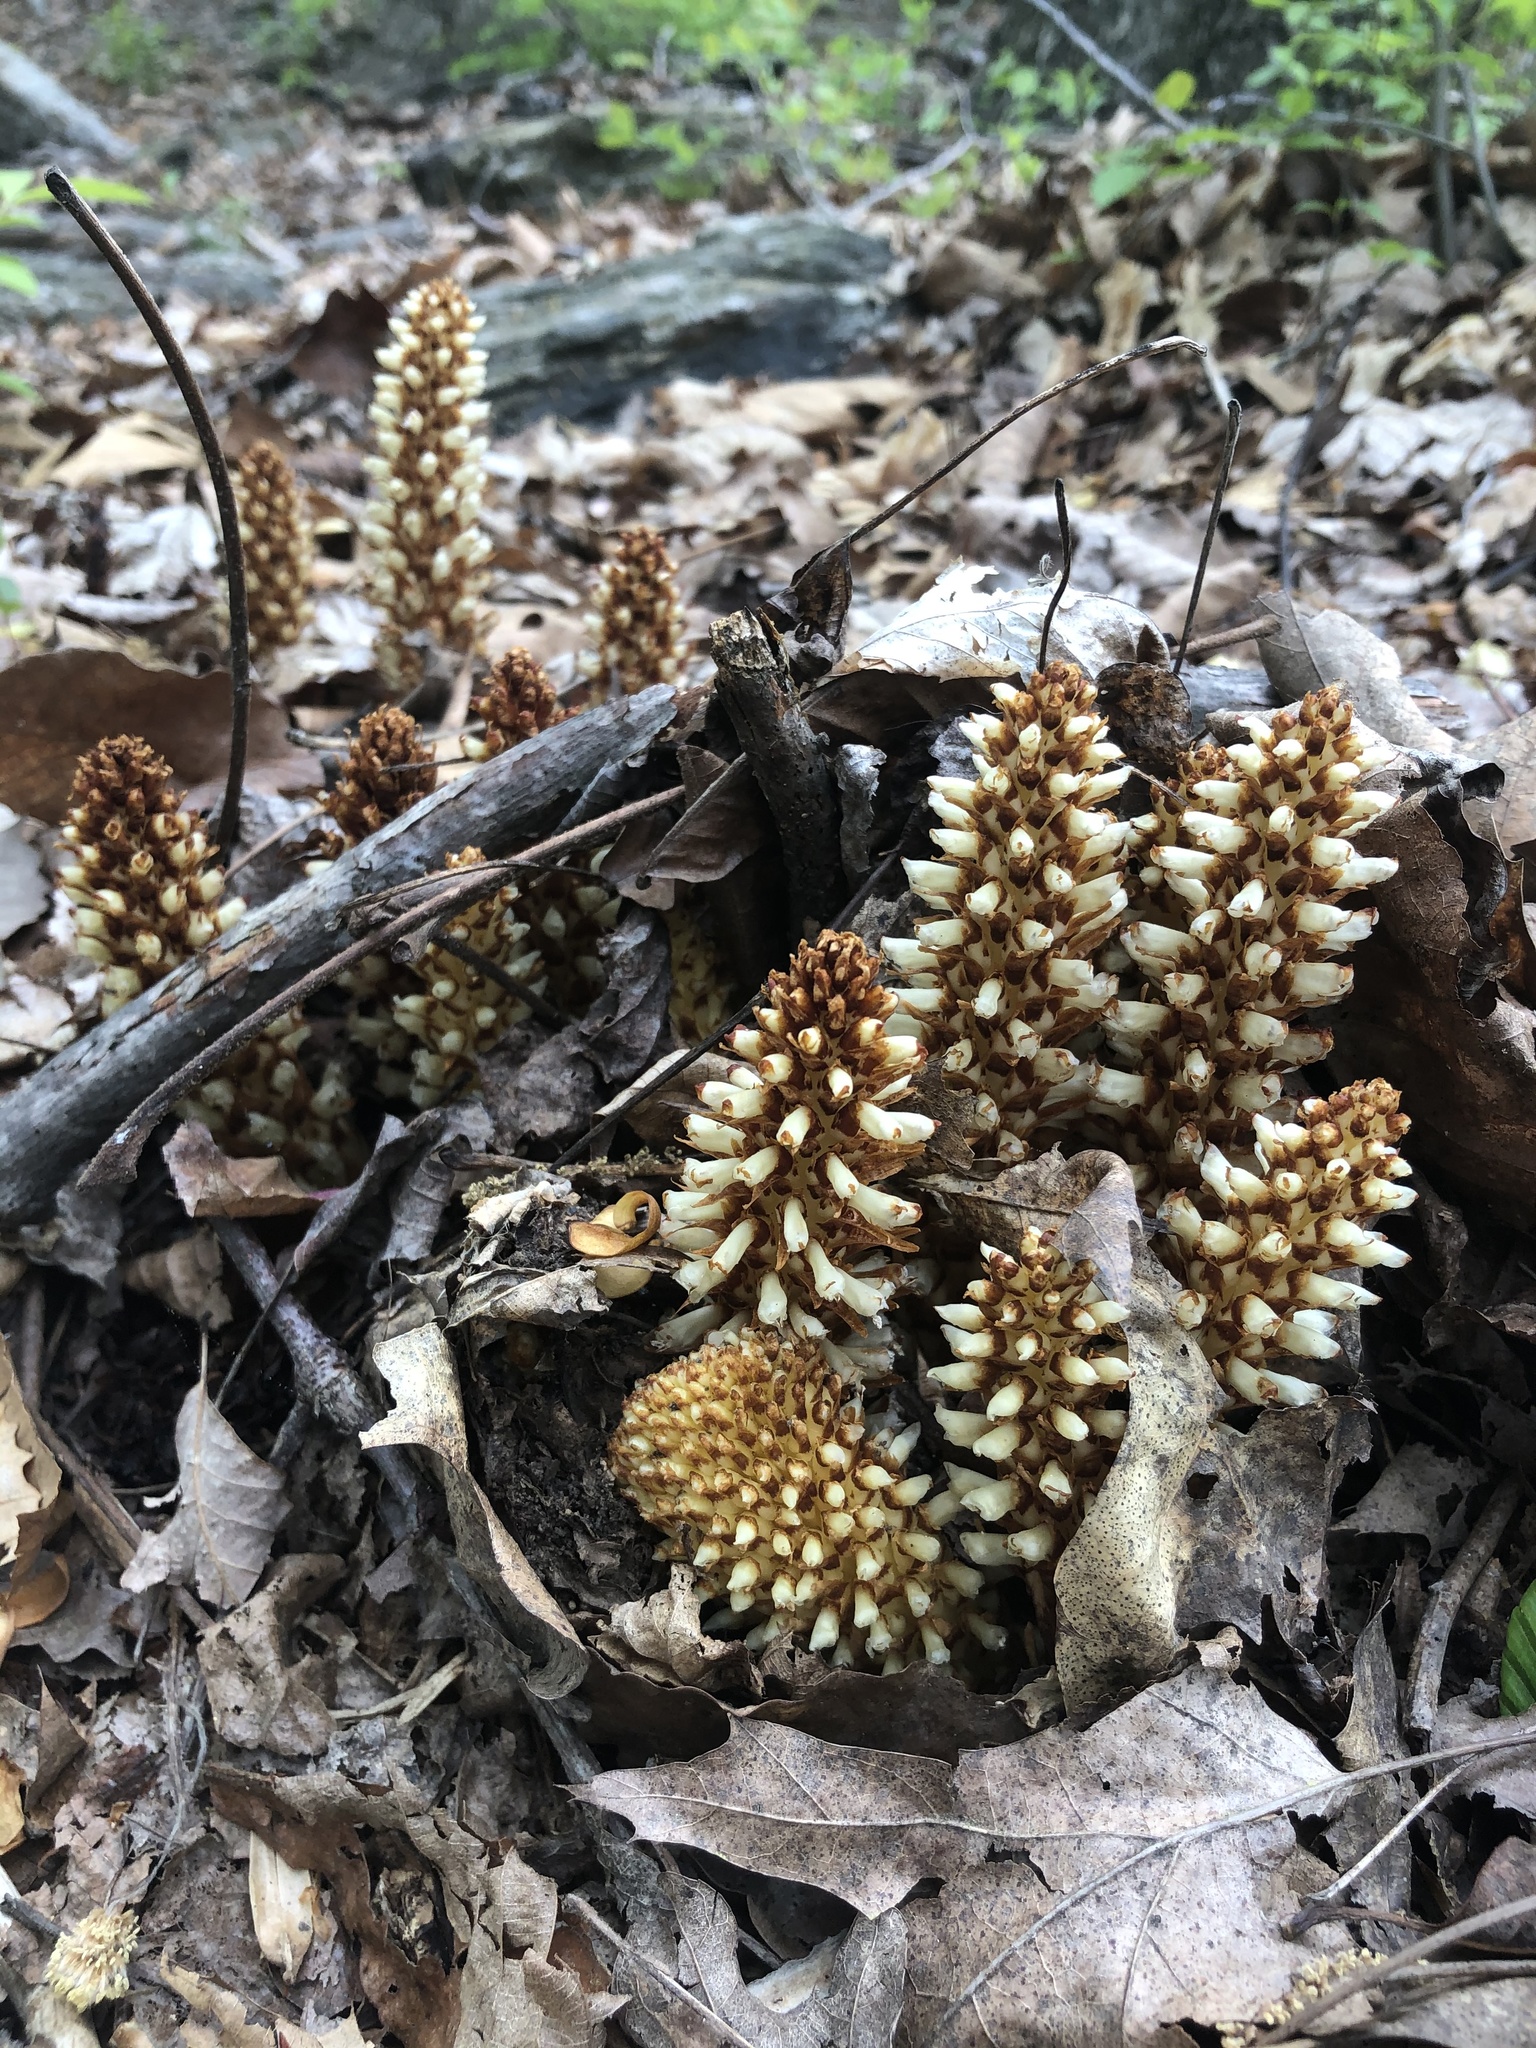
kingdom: Plantae
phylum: Tracheophyta
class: Magnoliopsida
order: Lamiales
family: Orobanchaceae
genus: Conopholis
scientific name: Conopholis americana
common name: American cancer-root
